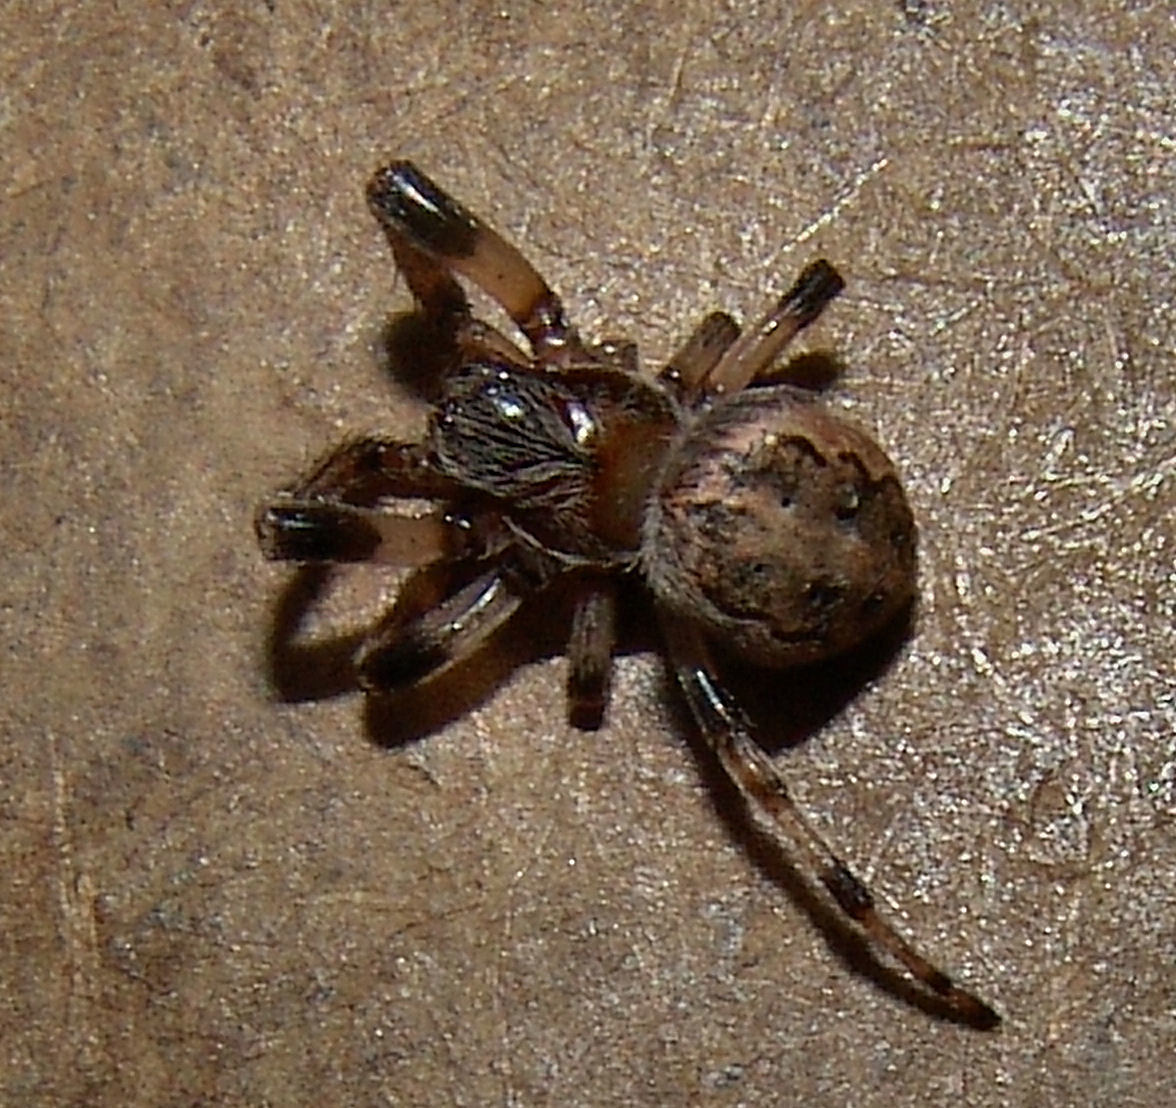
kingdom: Animalia
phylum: Arthropoda
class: Arachnida
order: Araneae
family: Araneidae
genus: Larinioides
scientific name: Larinioides
